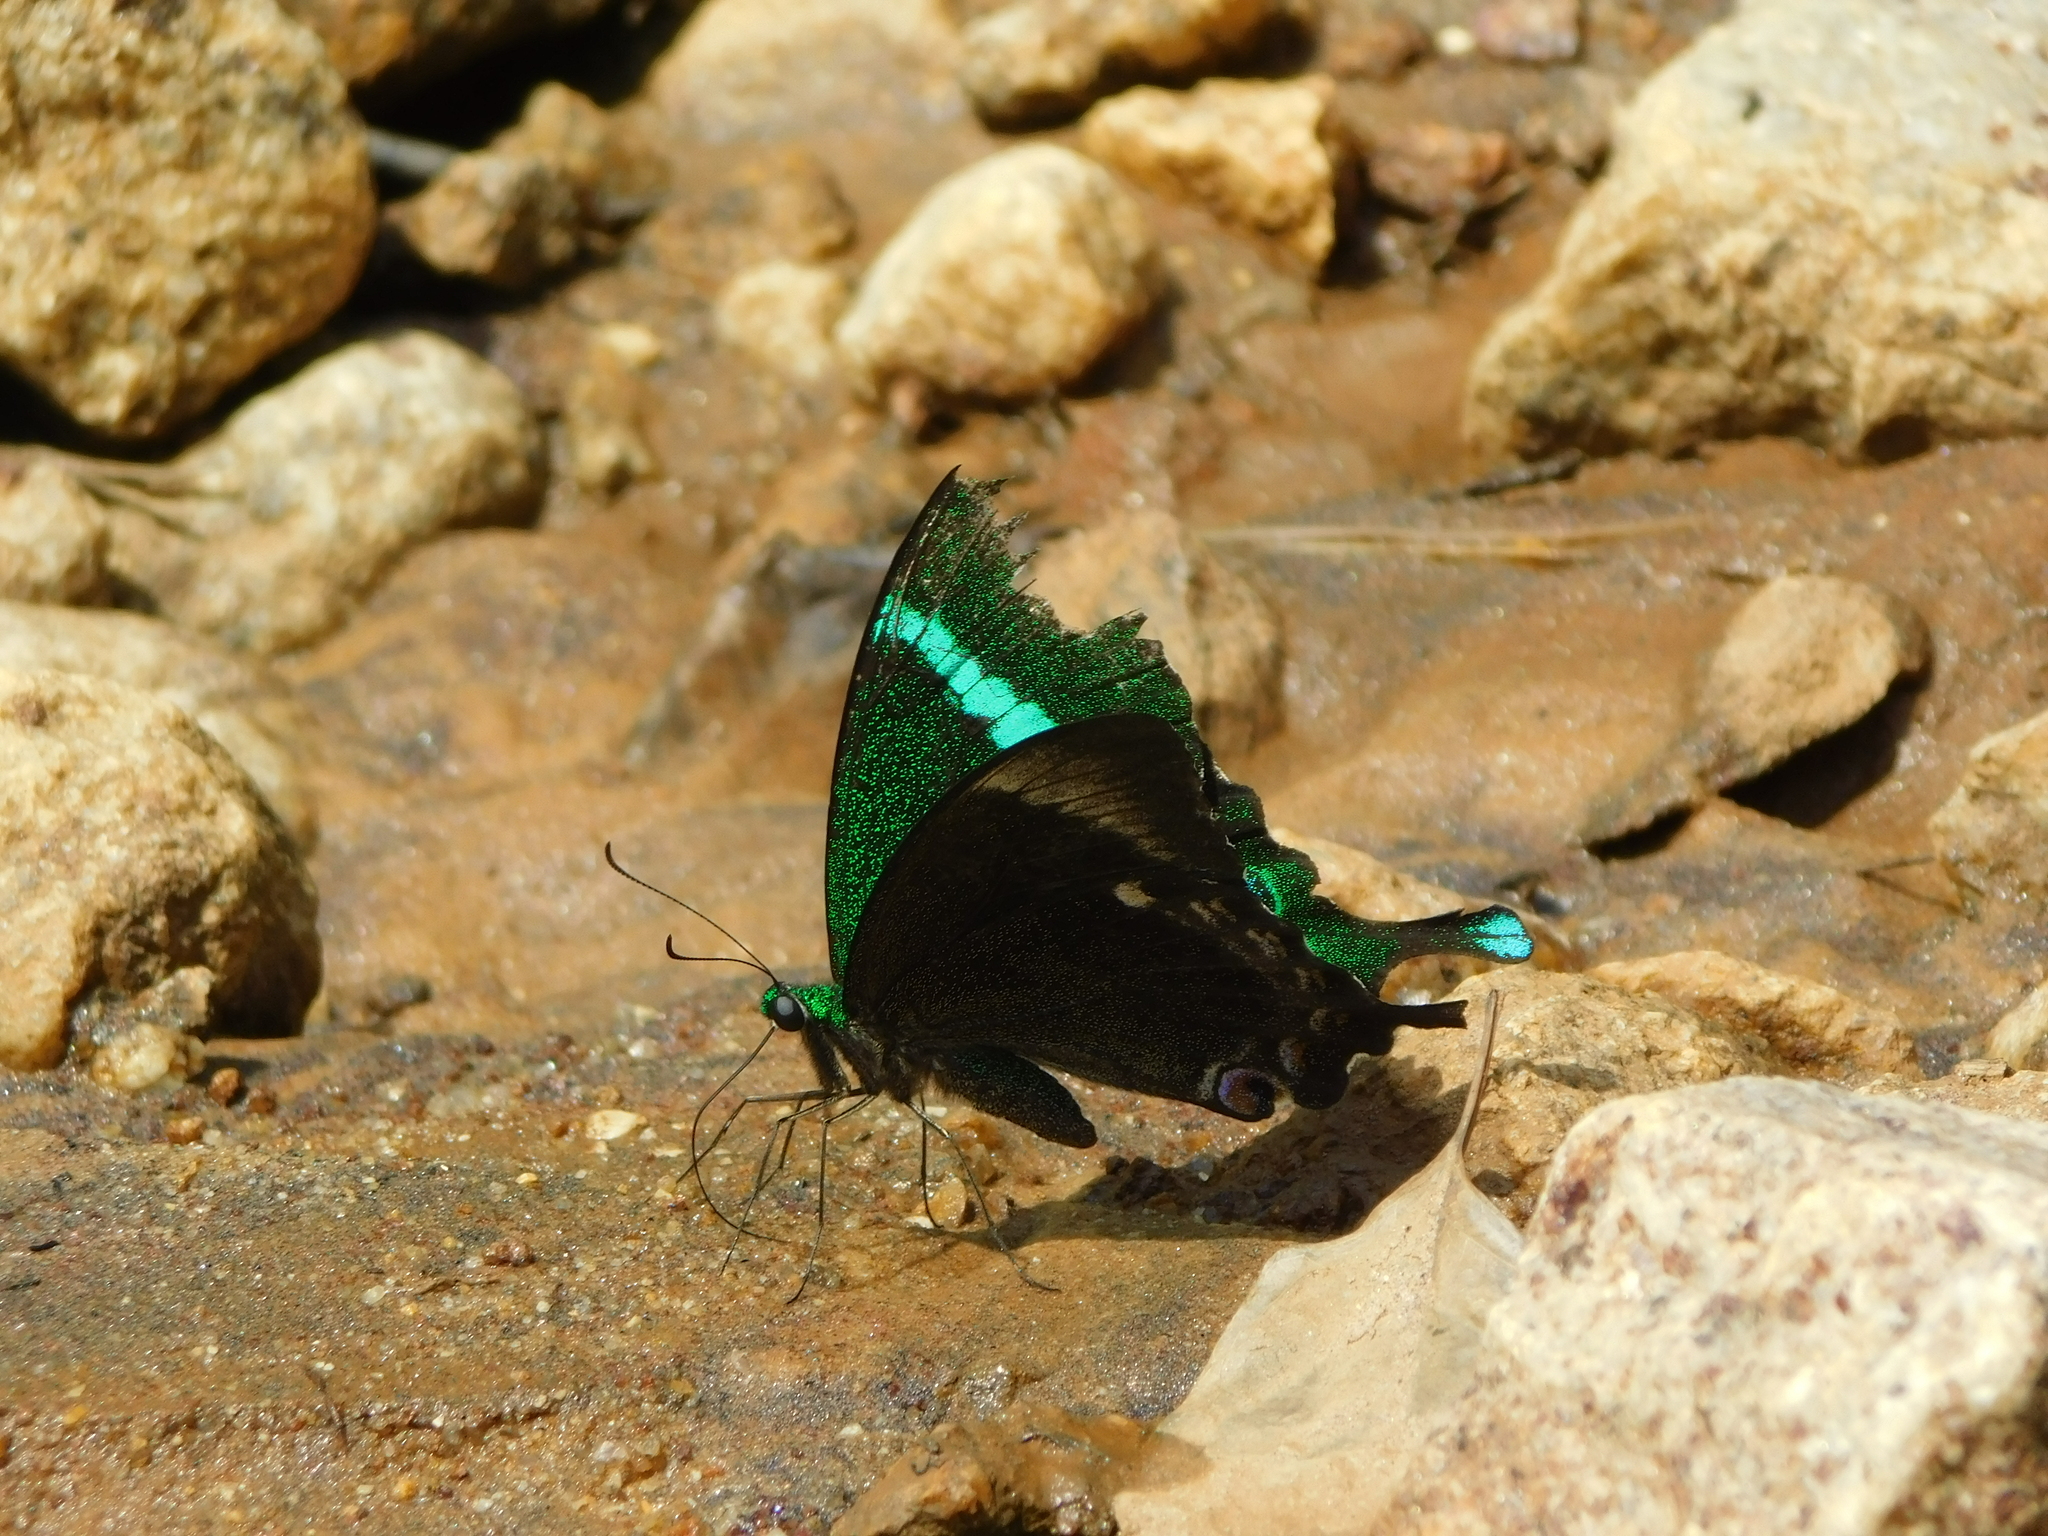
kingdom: Animalia
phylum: Arthropoda
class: Insecta
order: Lepidoptera
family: Papilionidae
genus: Papilio
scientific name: Papilio crino
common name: Common banded peacock
